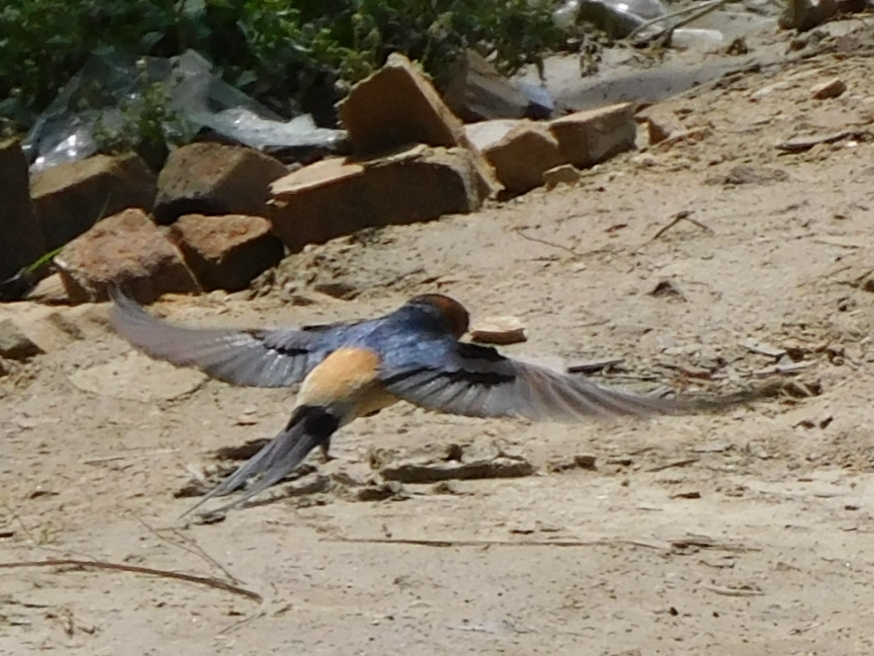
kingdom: Animalia
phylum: Chordata
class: Aves
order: Passeriformes
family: Hirundinidae
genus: Cecropis
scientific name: Cecropis daurica
